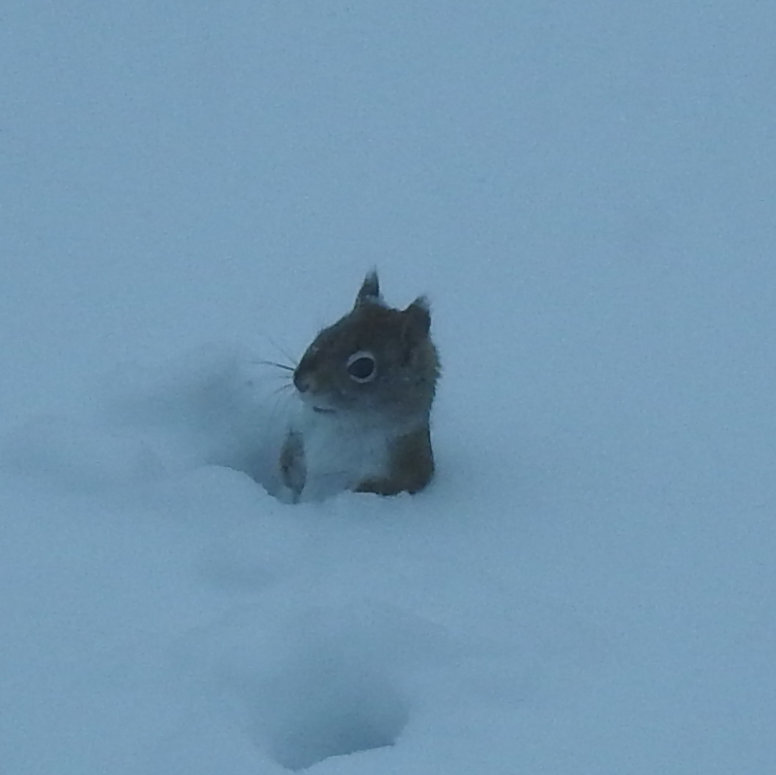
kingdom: Animalia
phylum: Chordata
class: Mammalia
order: Rodentia
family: Sciuridae
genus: Tamiasciurus
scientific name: Tamiasciurus hudsonicus
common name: Red squirrel
